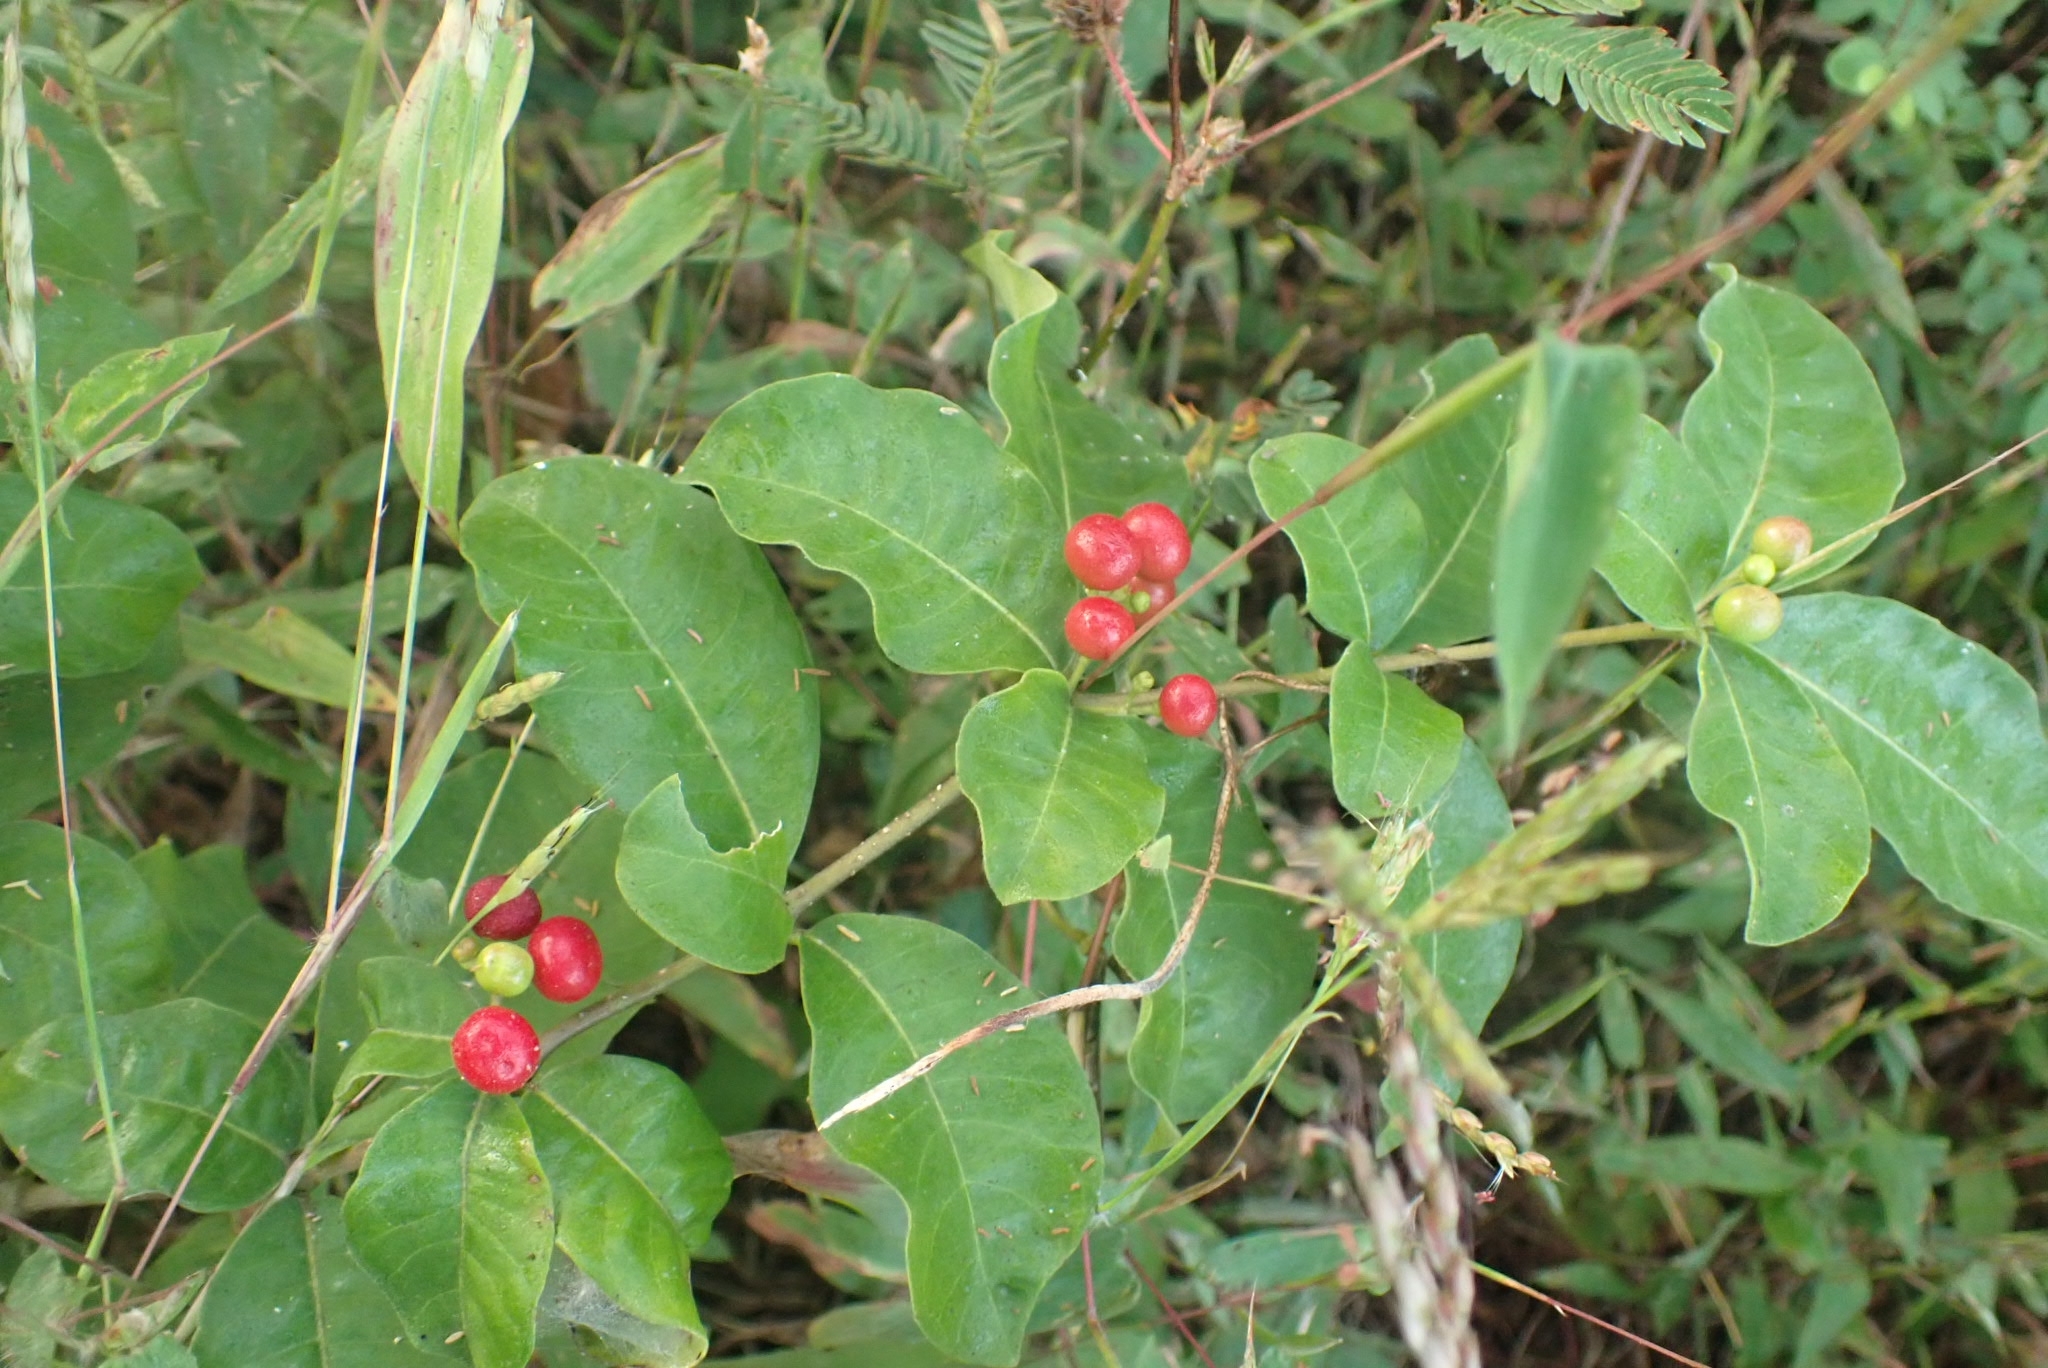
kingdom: Plantae
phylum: Tracheophyta
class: Magnoliopsida
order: Gentianales
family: Apocynaceae
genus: Rauvolfia
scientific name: Rauvolfia tetraphylla
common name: Four-leaf devil-pepper
